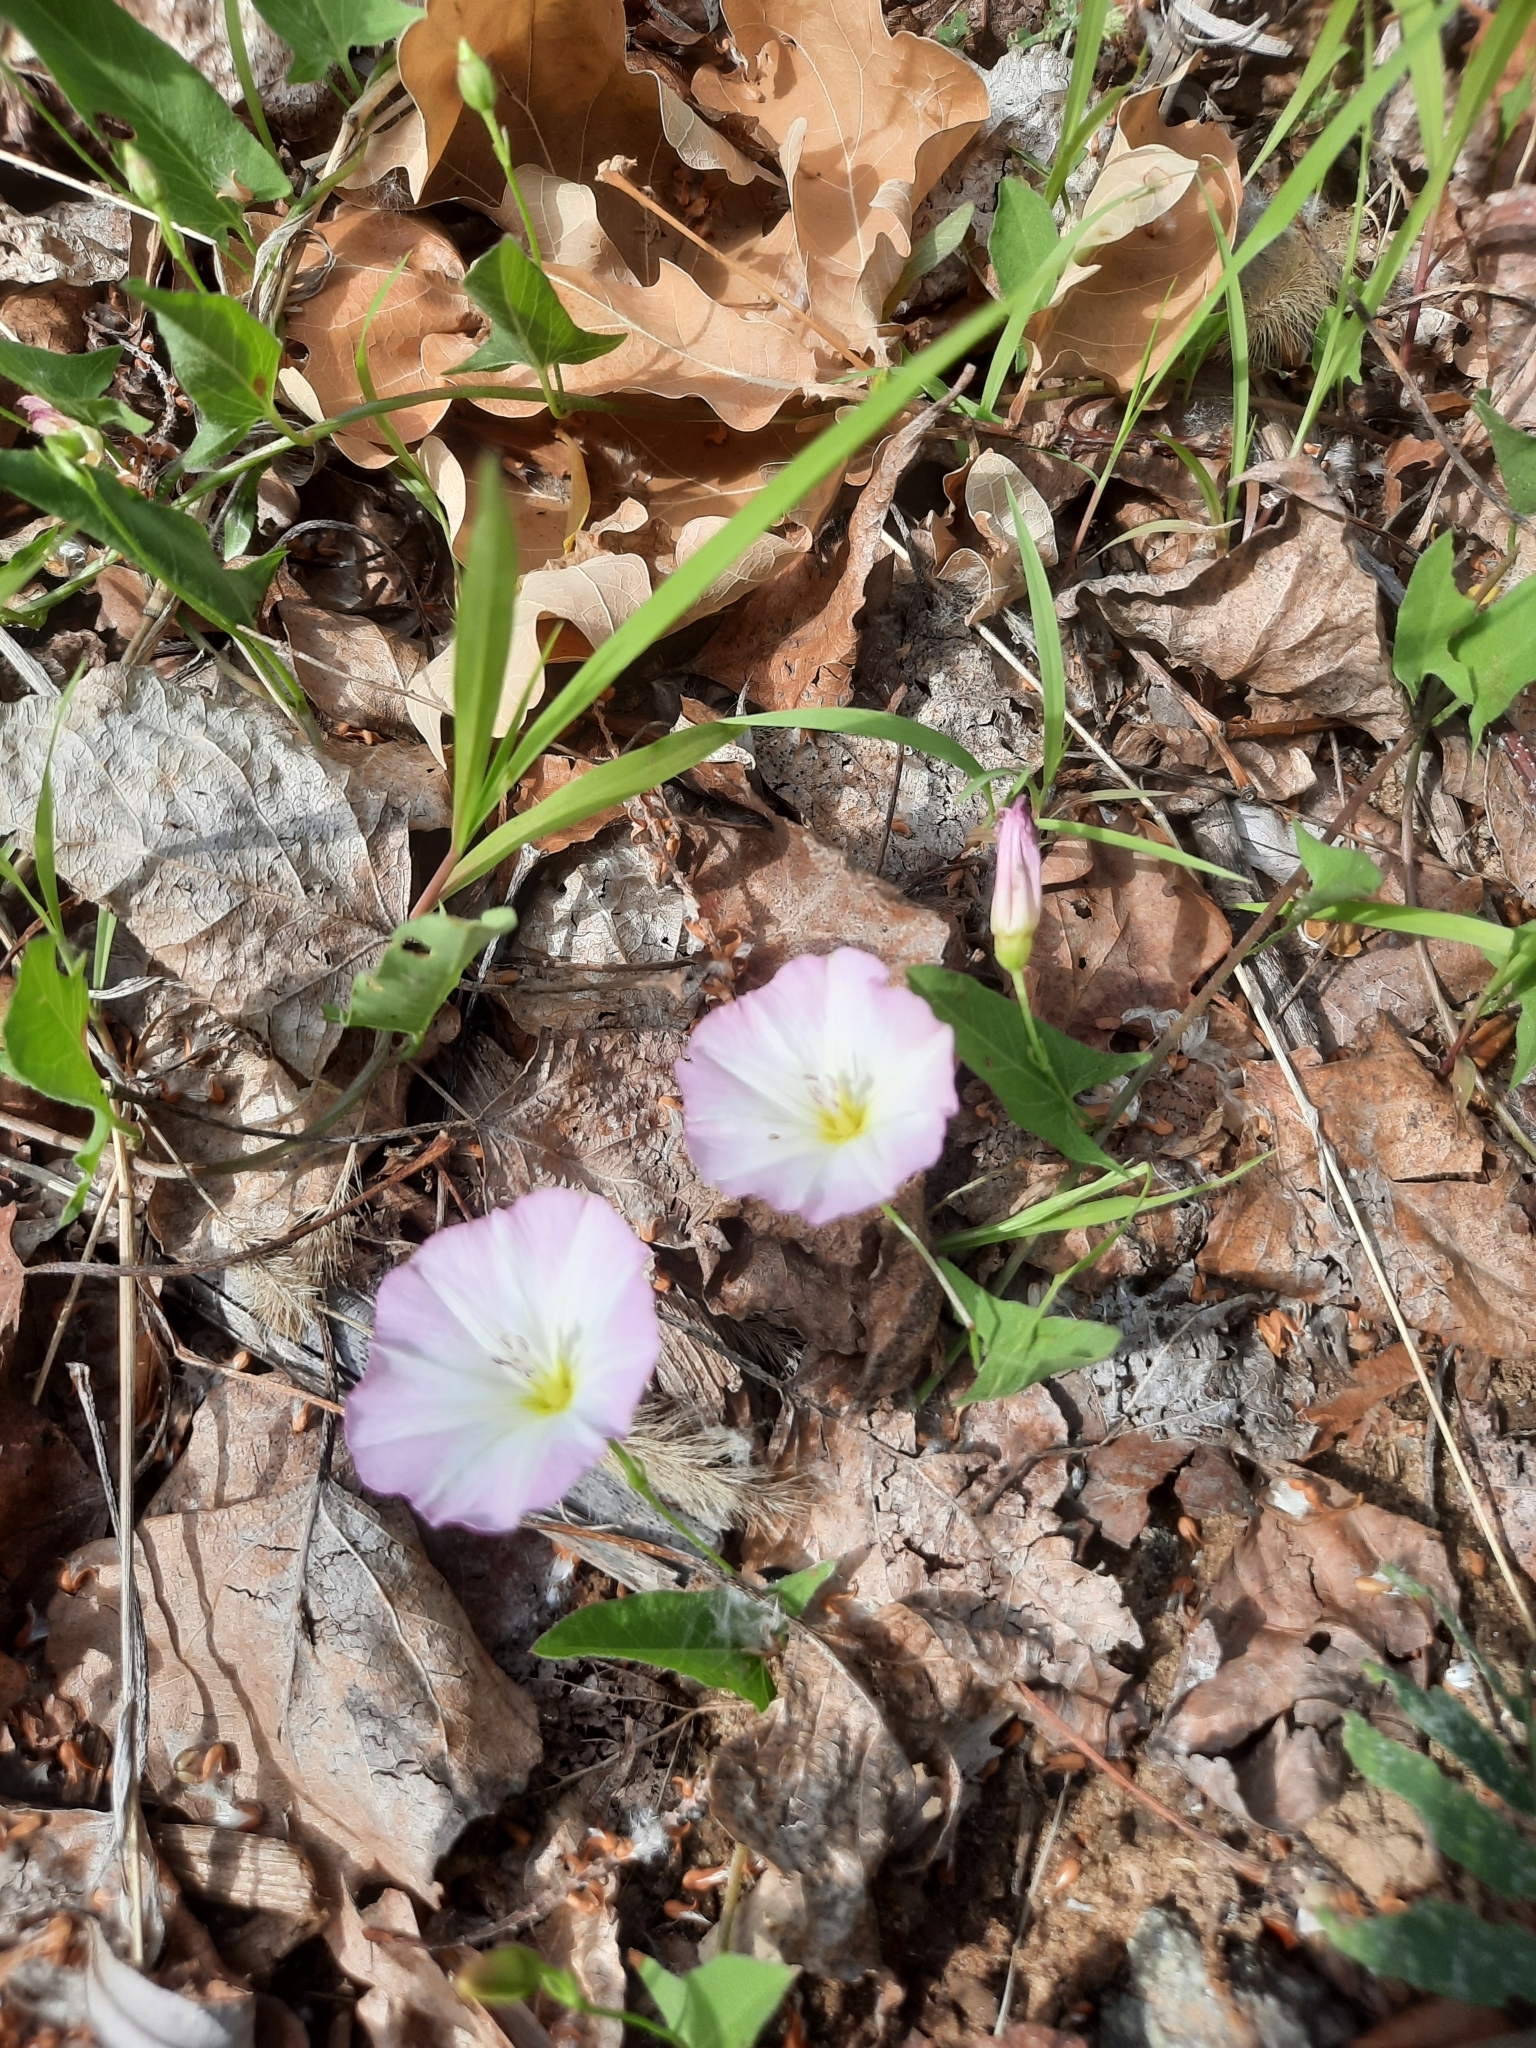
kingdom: Plantae
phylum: Tracheophyta
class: Magnoliopsida
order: Solanales
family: Convolvulaceae
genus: Convolvulus
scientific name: Convolvulus arvensis
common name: Field bindweed
